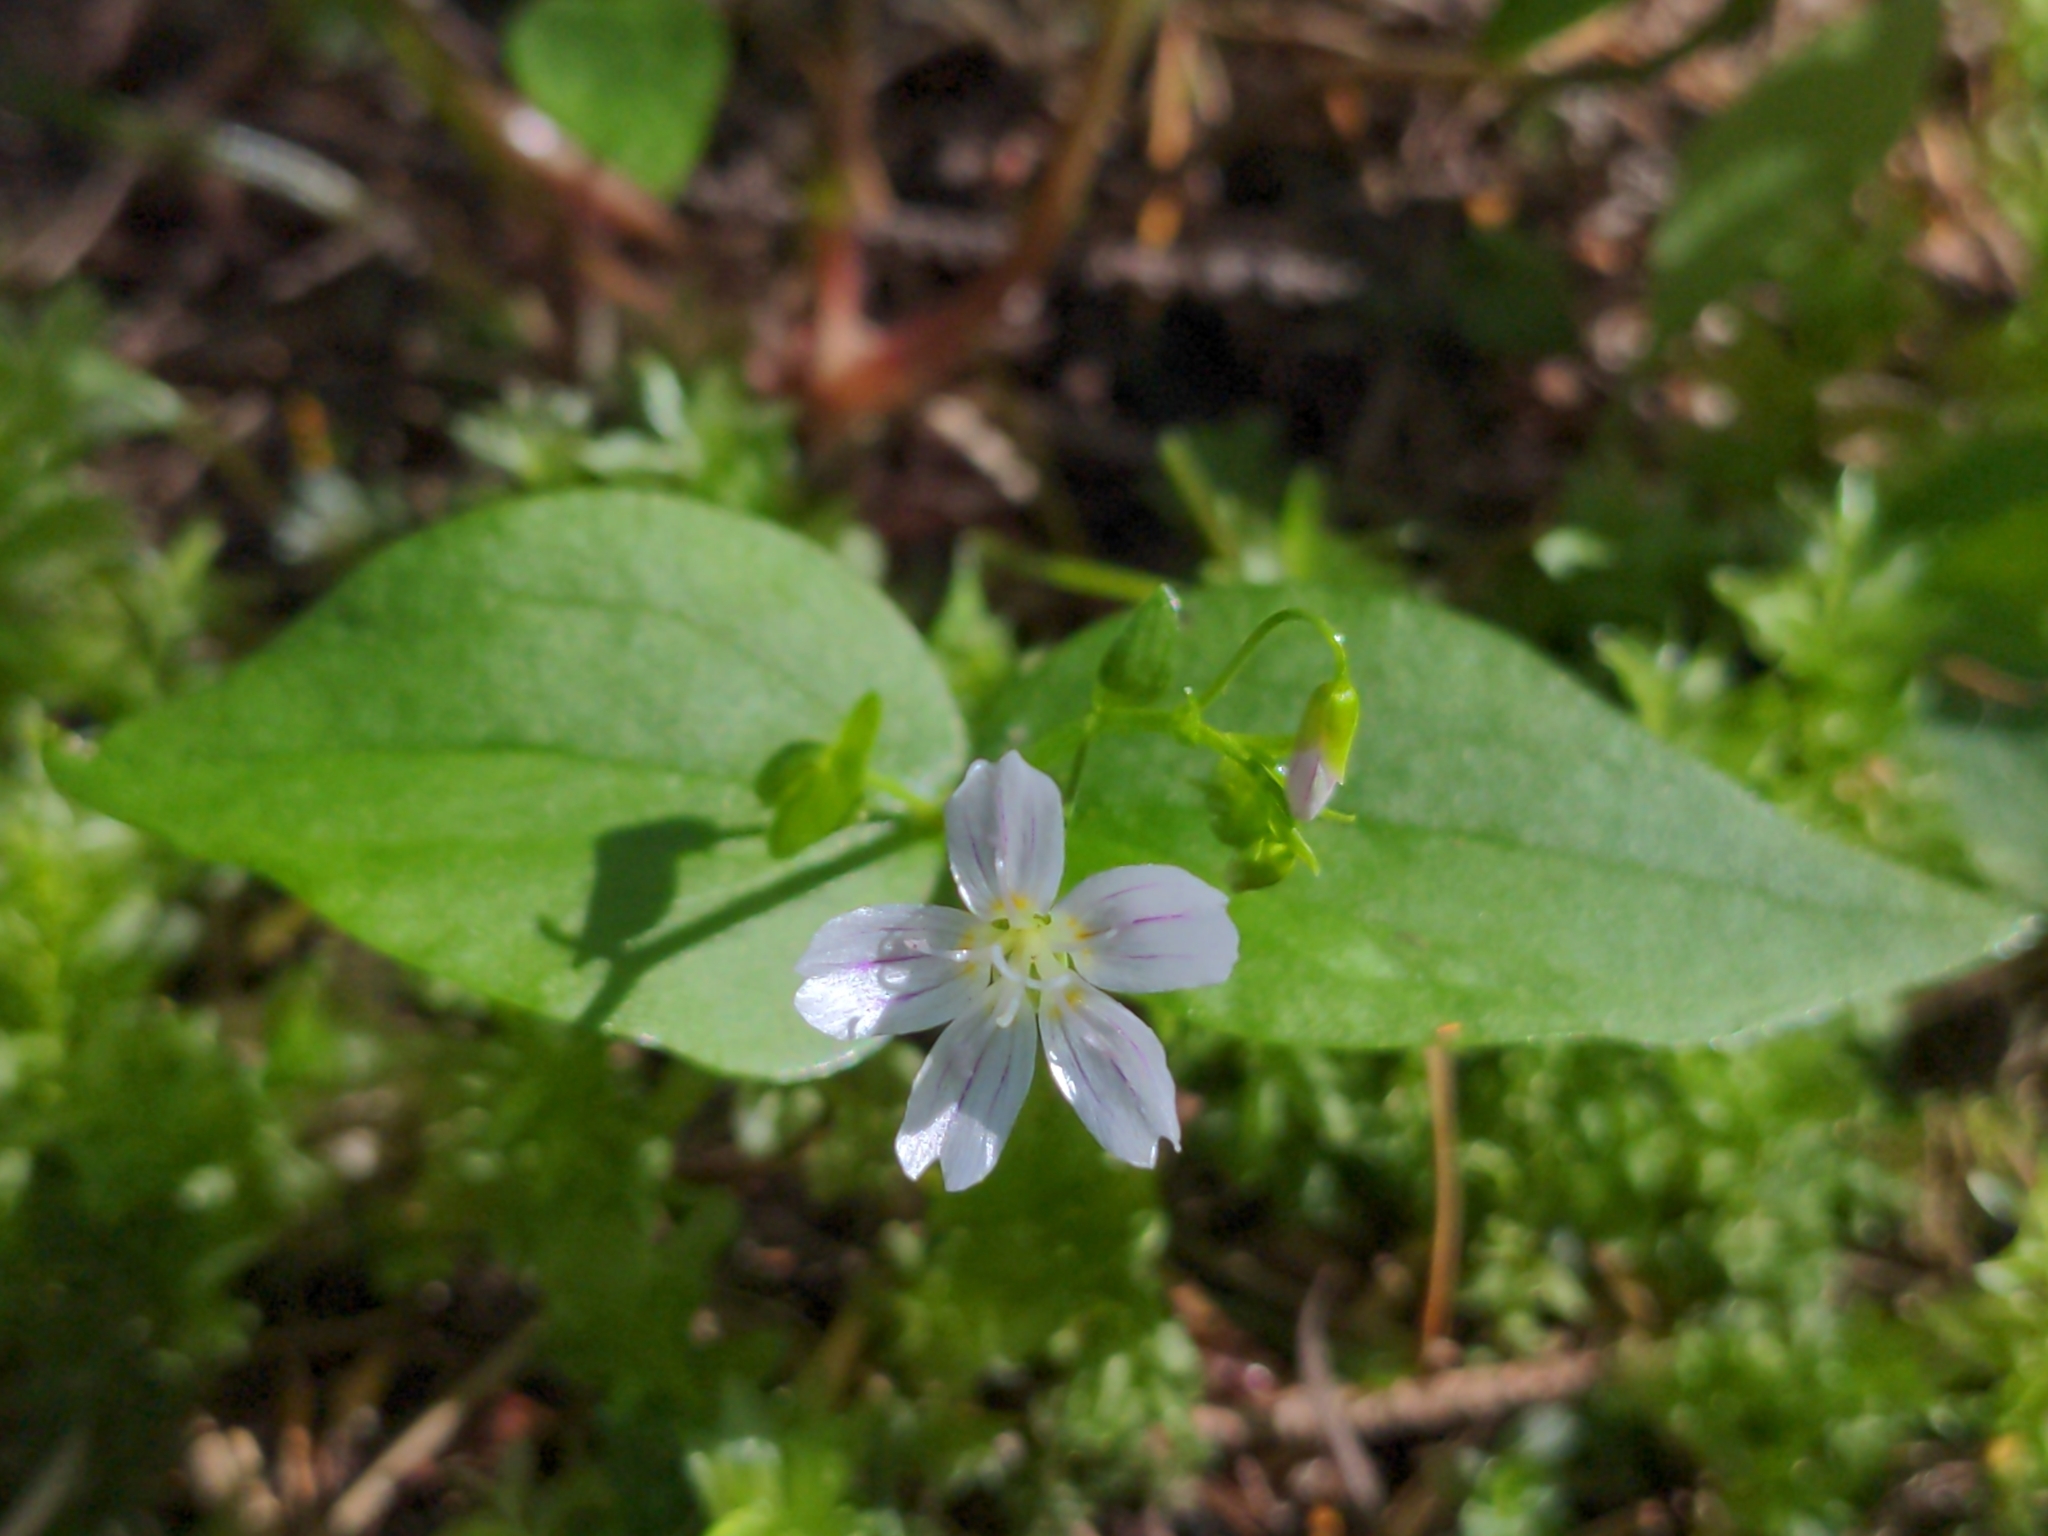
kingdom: Plantae
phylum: Tracheophyta
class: Magnoliopsida
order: Caryophyllales
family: Montiaceae
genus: Claytonia
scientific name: Claytonia sibirica
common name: Pink purslane
